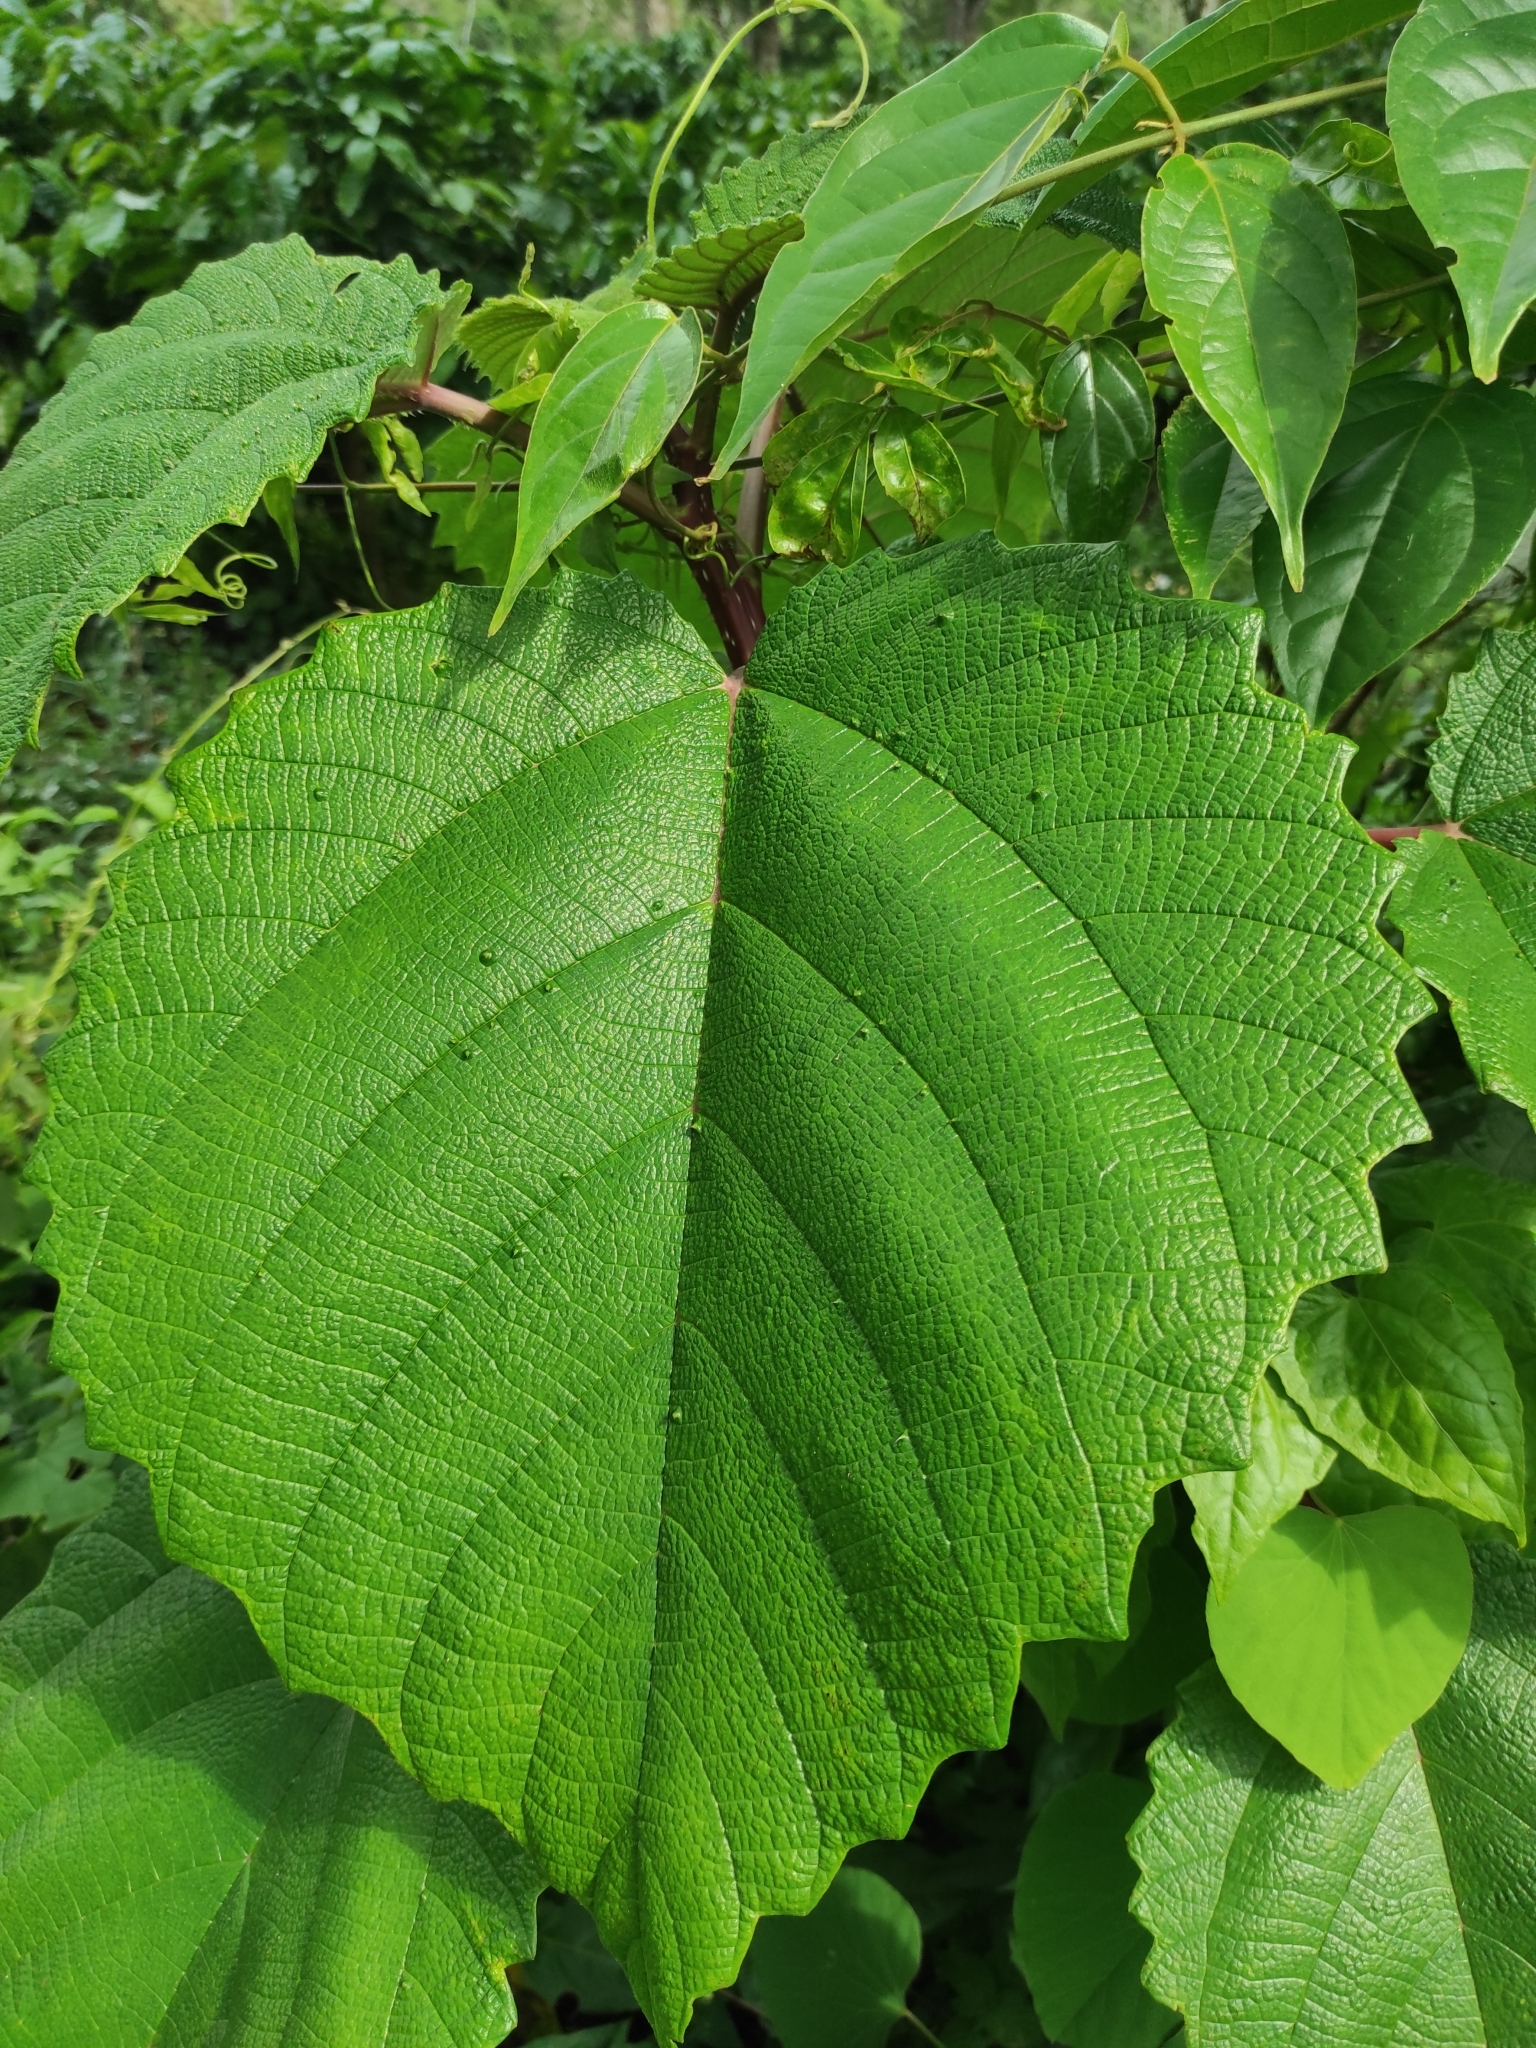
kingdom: Plantae
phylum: Tracheophyta
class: Magnoliopsida
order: Rosales
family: Urticaceae
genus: Urera
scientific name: Urera baccifera
